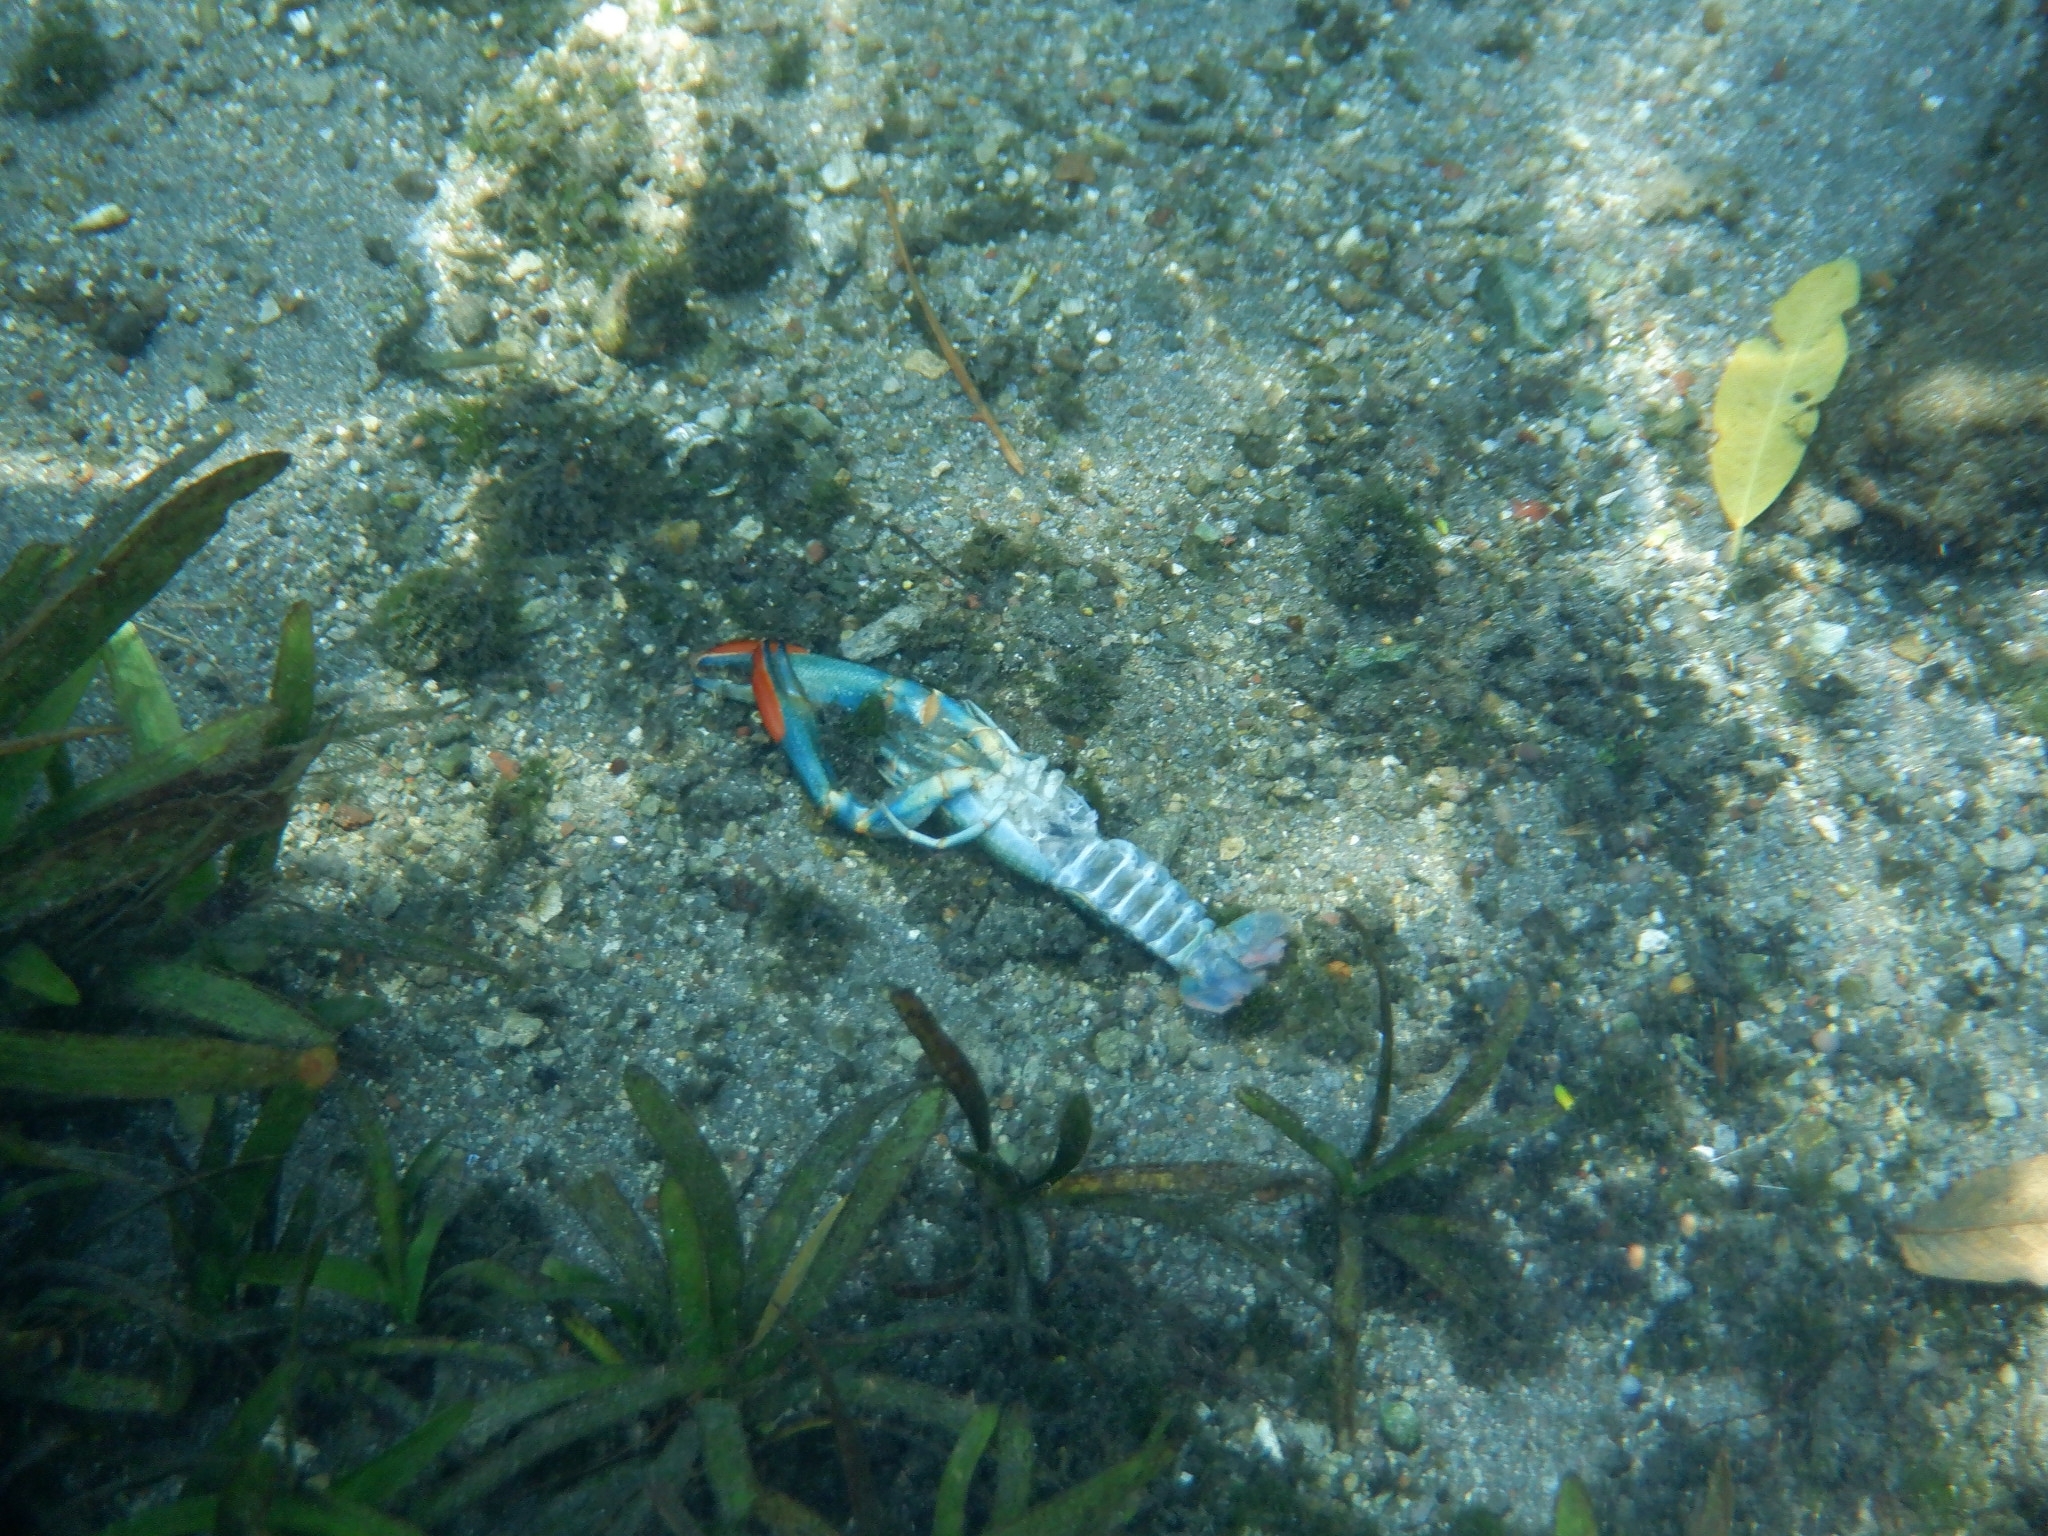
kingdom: Animalia
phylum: Arthropoda
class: Malacostraca
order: Decapoda
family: Parastacidae
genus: Cherax
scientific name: Cherax quadricarinatus
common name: Redclaw
